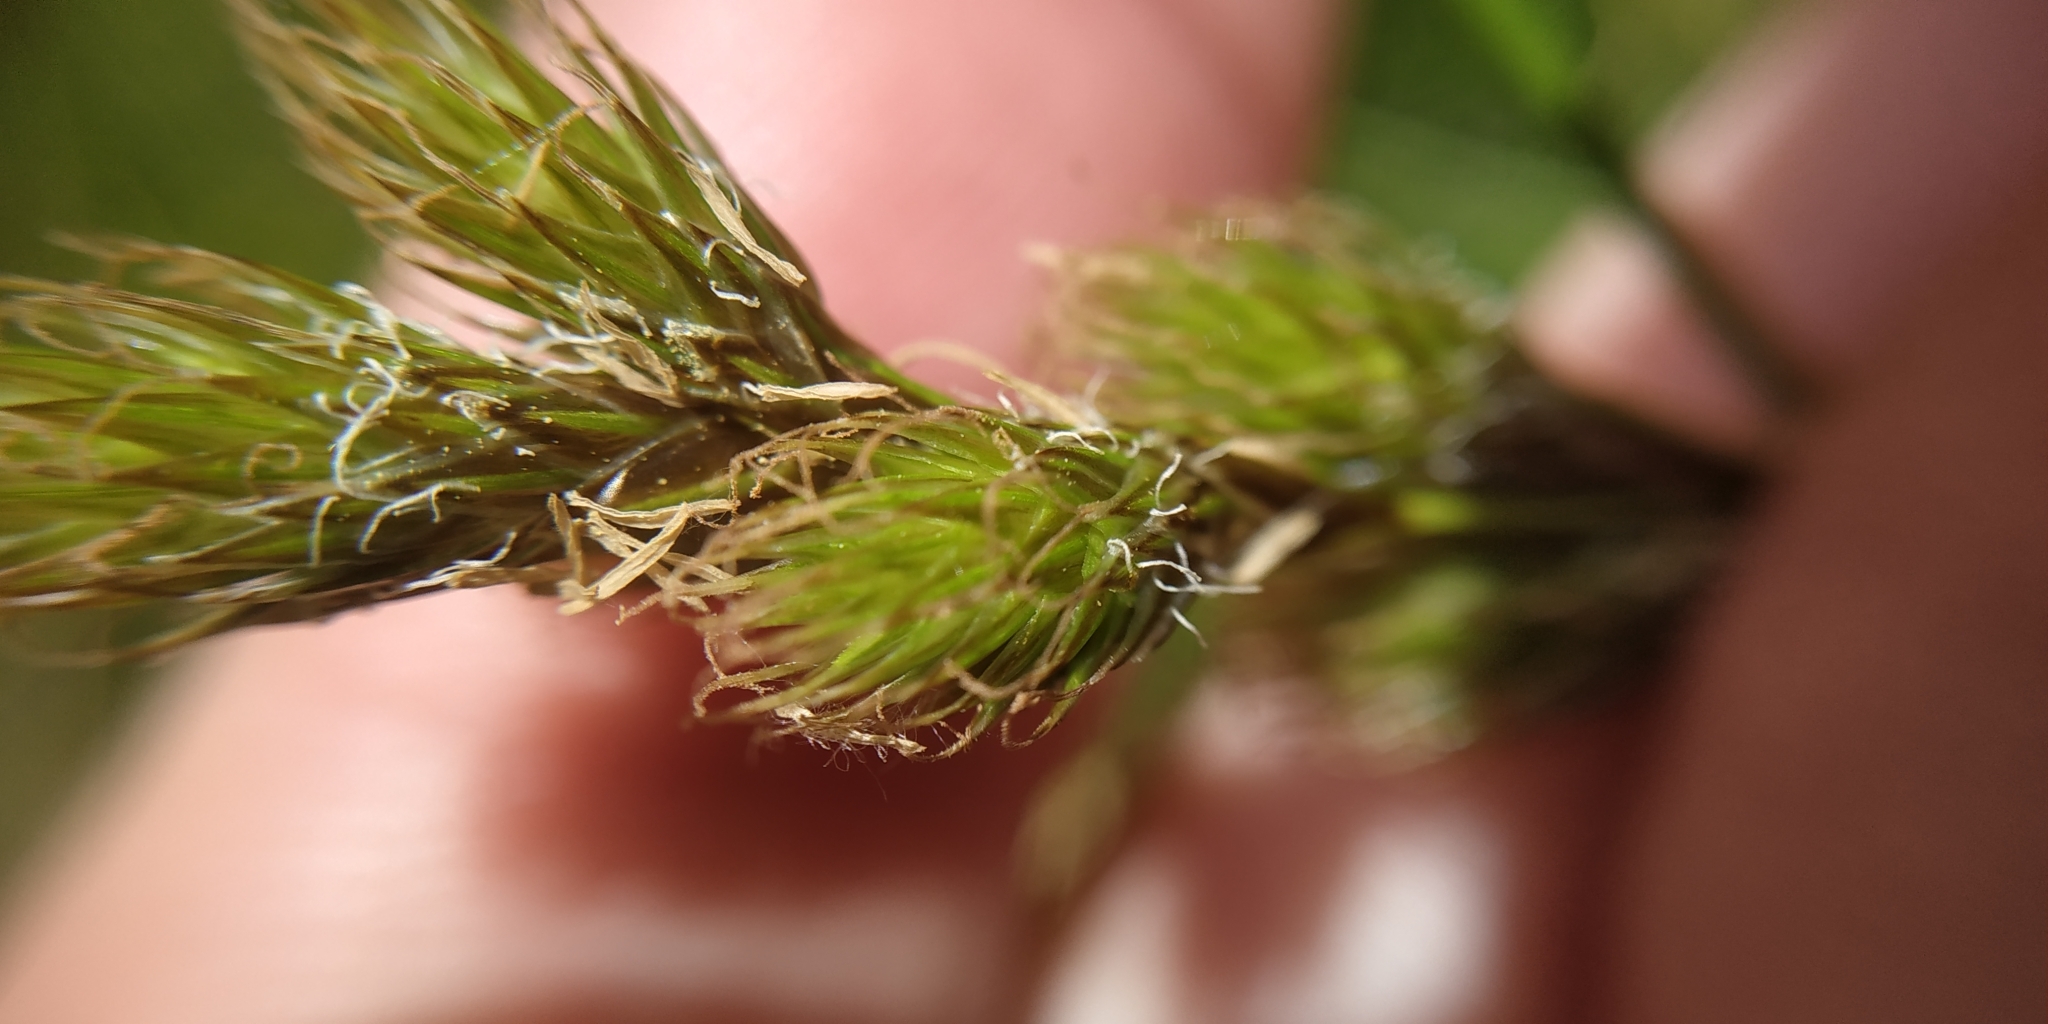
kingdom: Plantae
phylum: Tracheophyta
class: Liliopsida
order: Poales
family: Cyperaceae
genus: Carex
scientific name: Carex leporina
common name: Oval sedge
